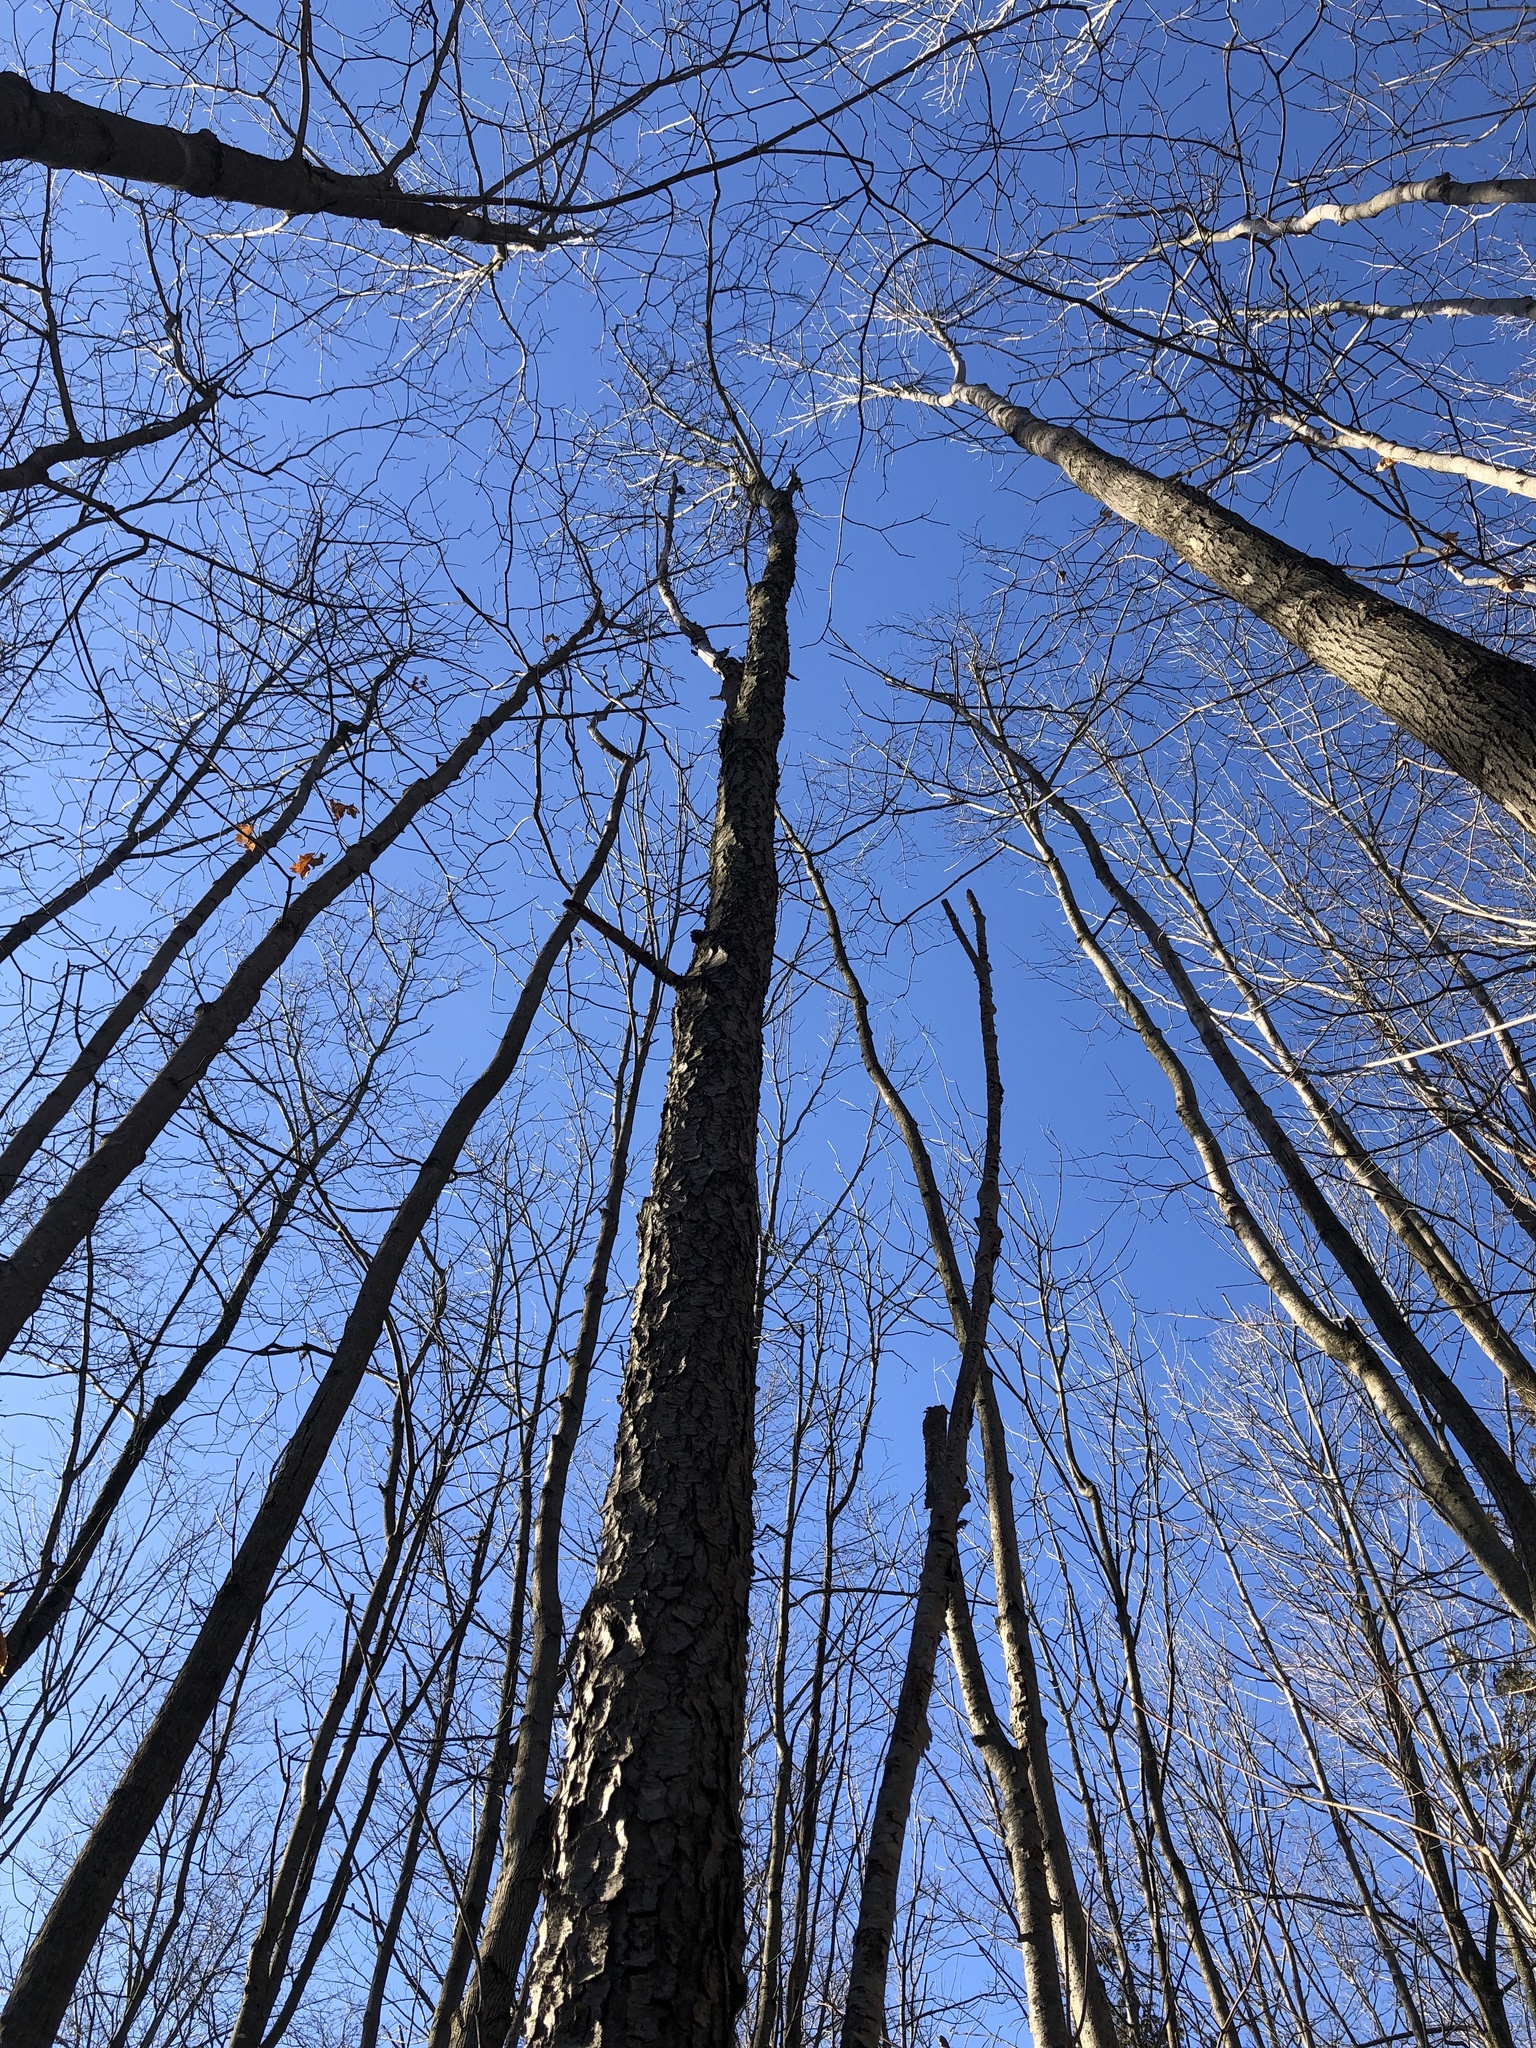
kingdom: Plantae
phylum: Tracheophyta
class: Magnoliopsida
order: Rosales
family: Rosaceae
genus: Prunus
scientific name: Prunus serotina
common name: Black cherry
